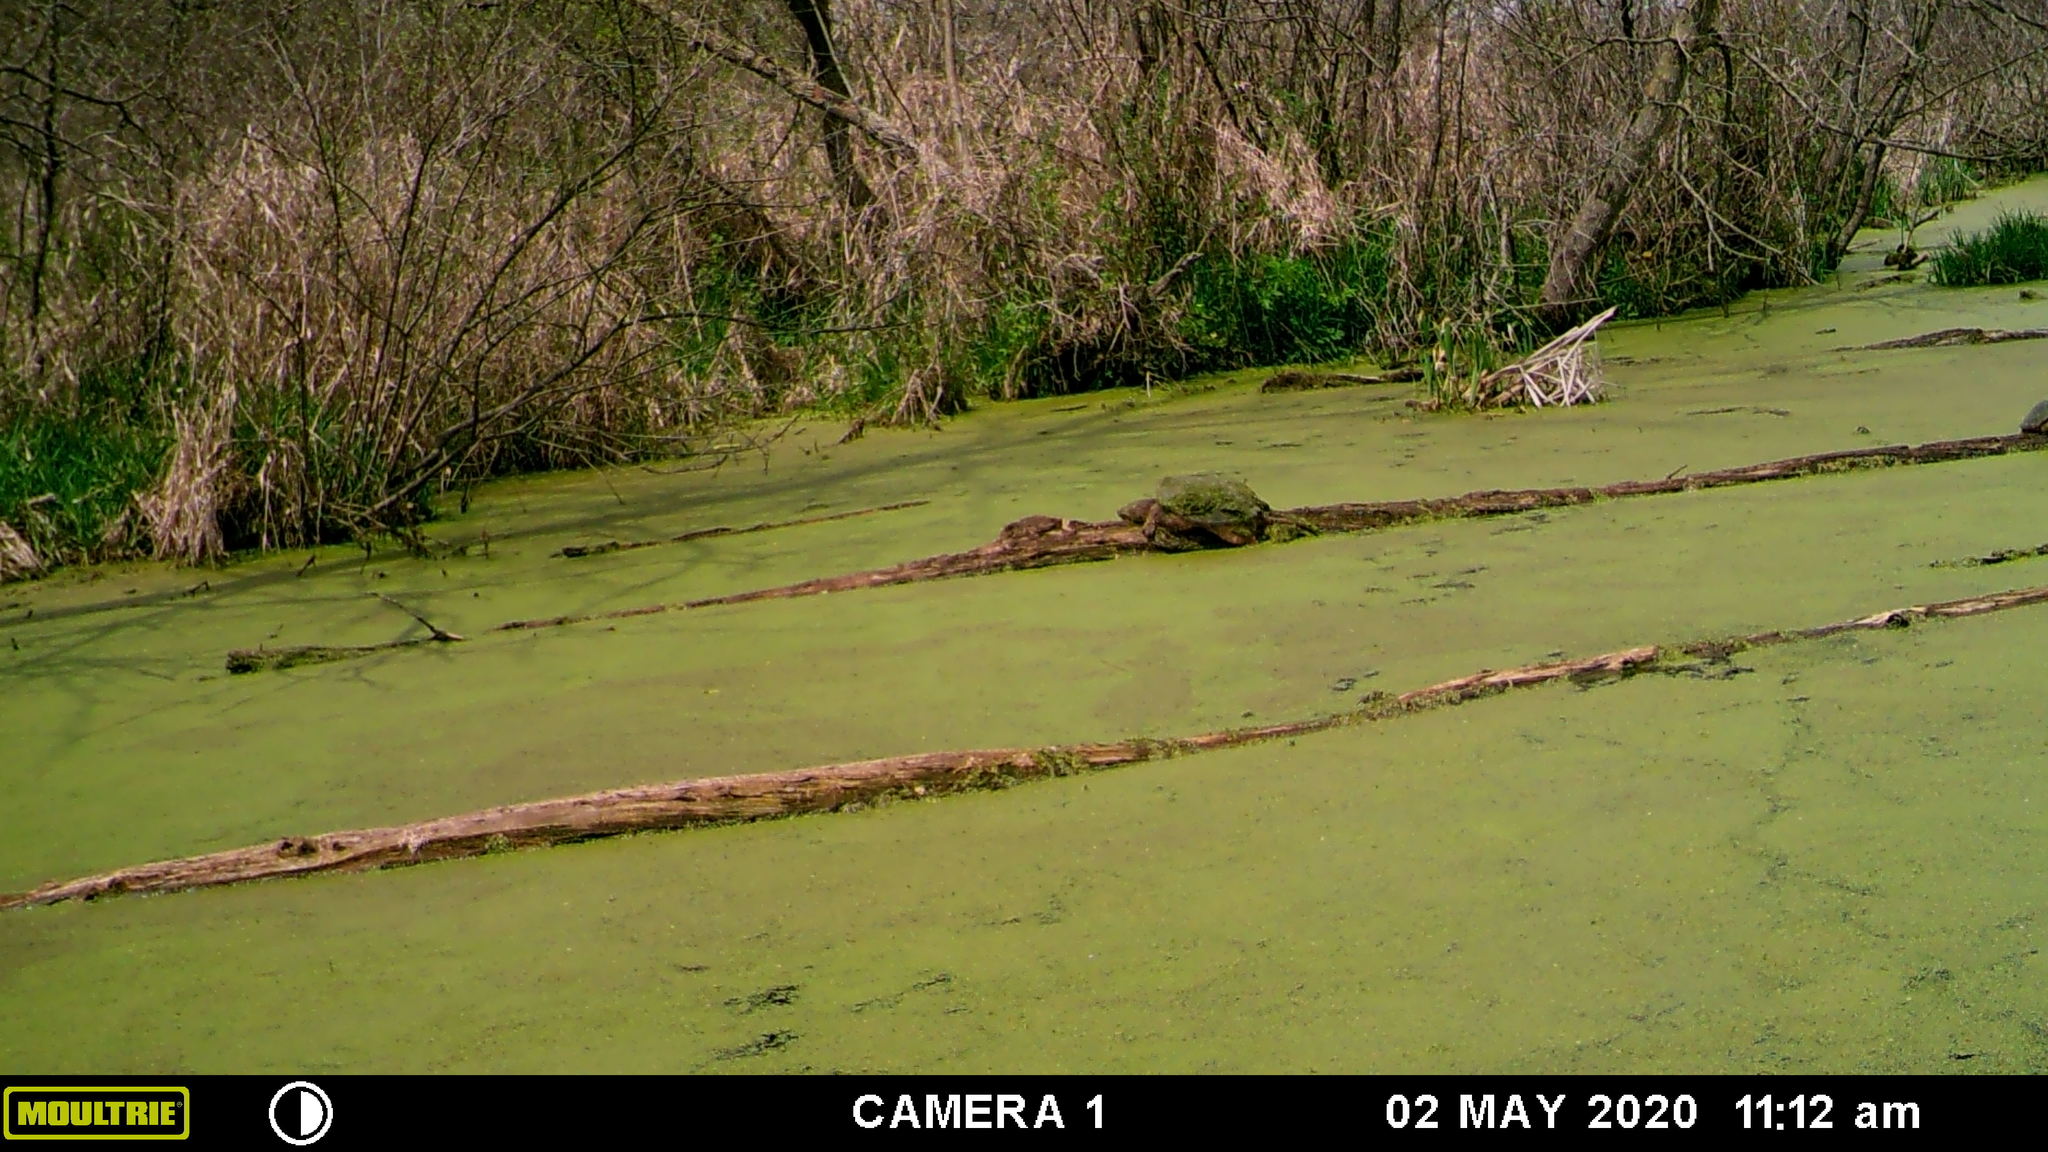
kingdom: Animalia
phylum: Chordata
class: Testudines
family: Chelydridae
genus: Chelydra
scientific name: Chelydra serpentina
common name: Common snapping turtle
